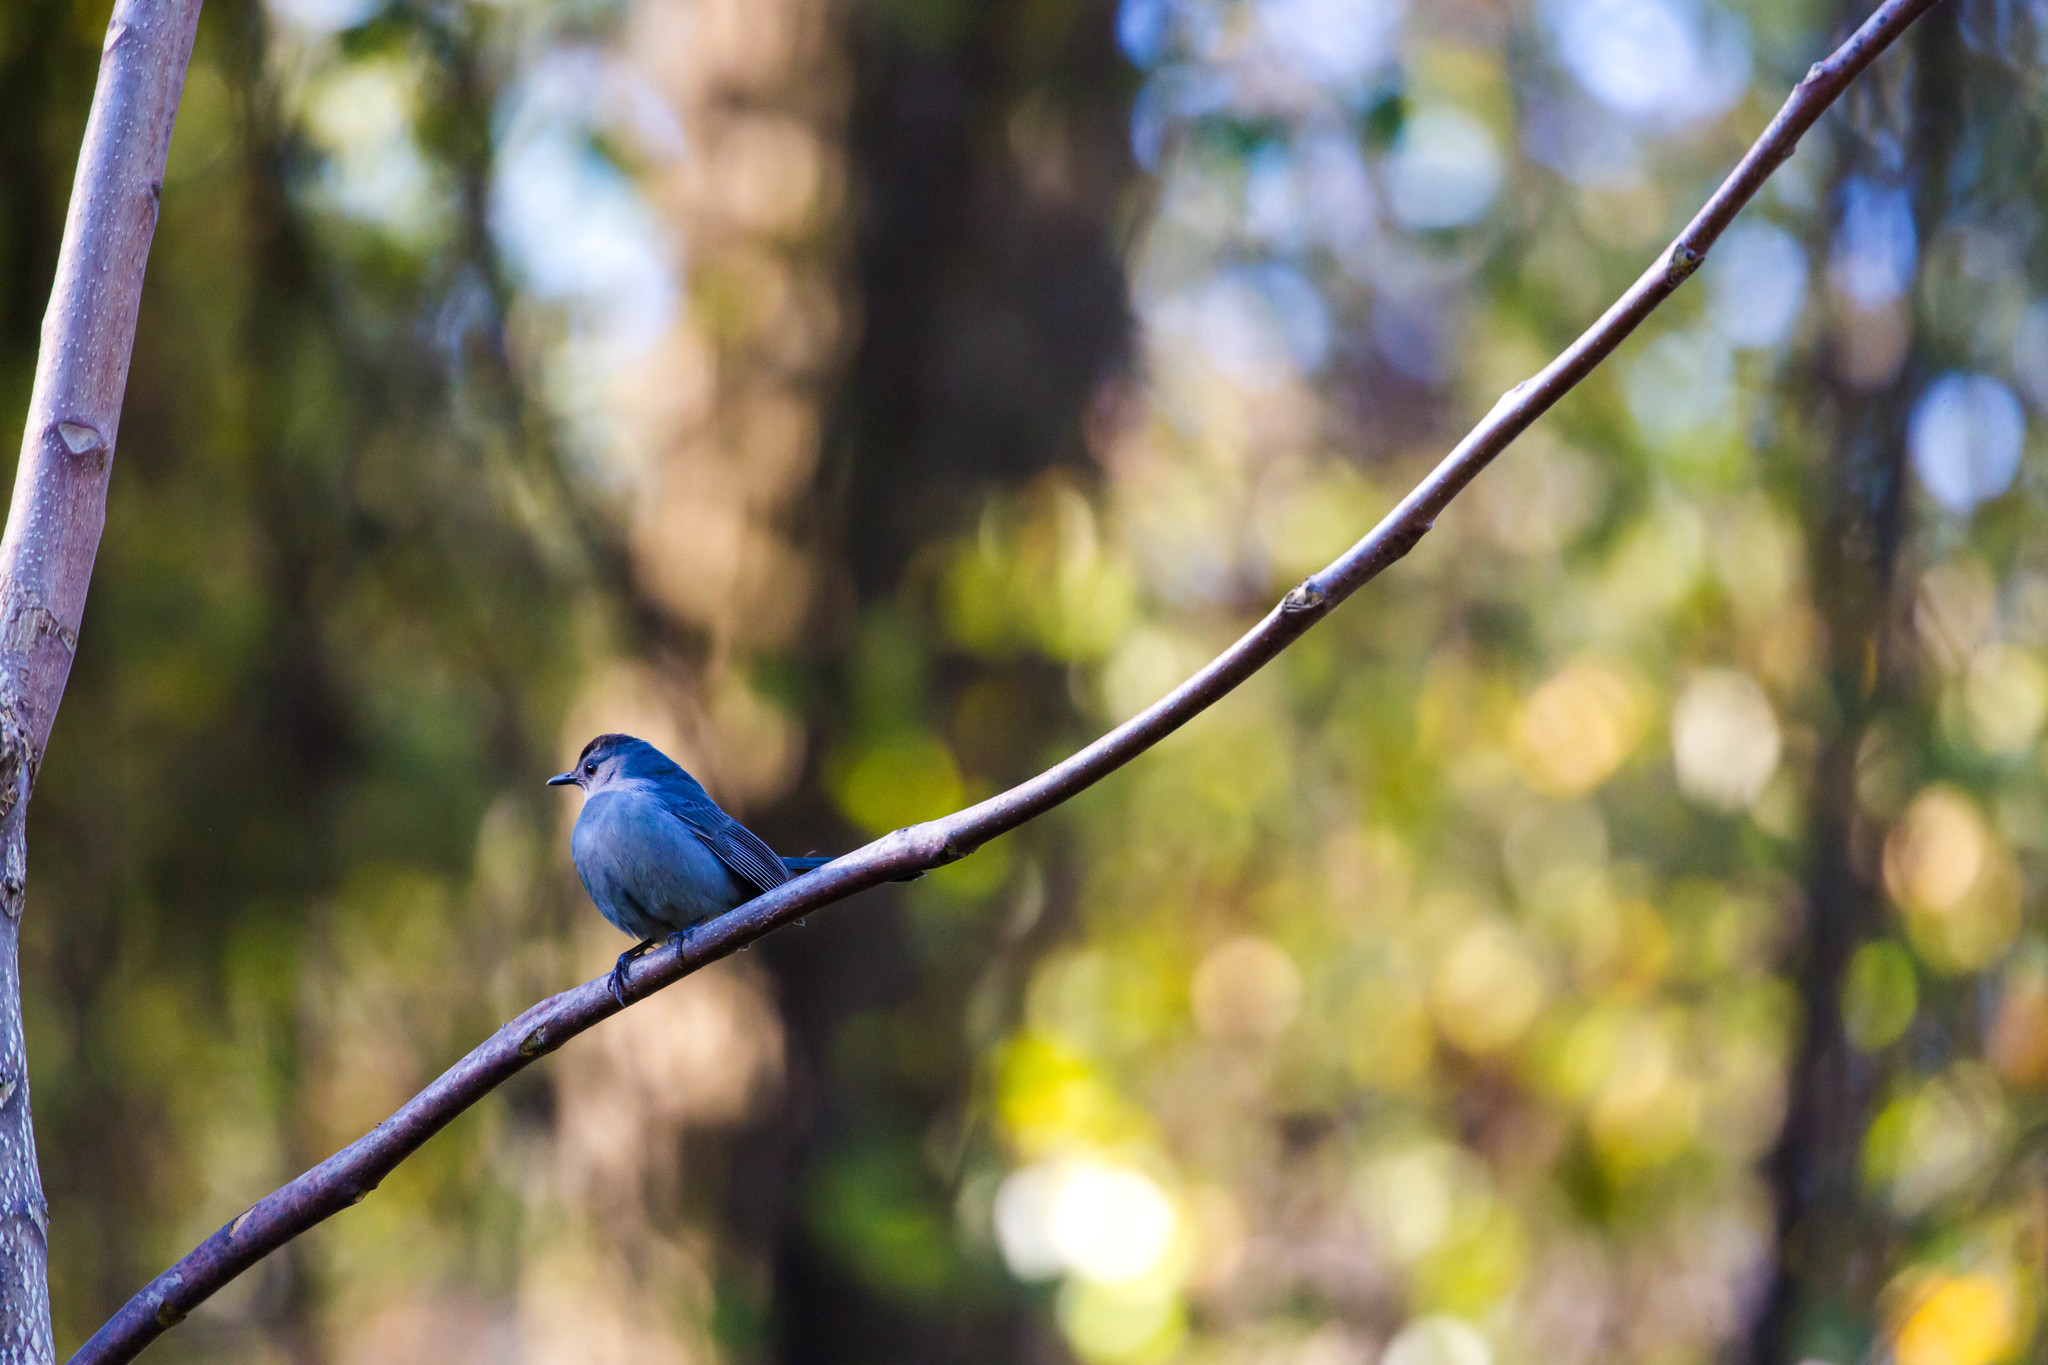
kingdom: Animalia
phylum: Chordata
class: Aves
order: Passeriformes
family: Mimidae
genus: Dumetella
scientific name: Dumetella carolinensis
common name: Gray catbird
